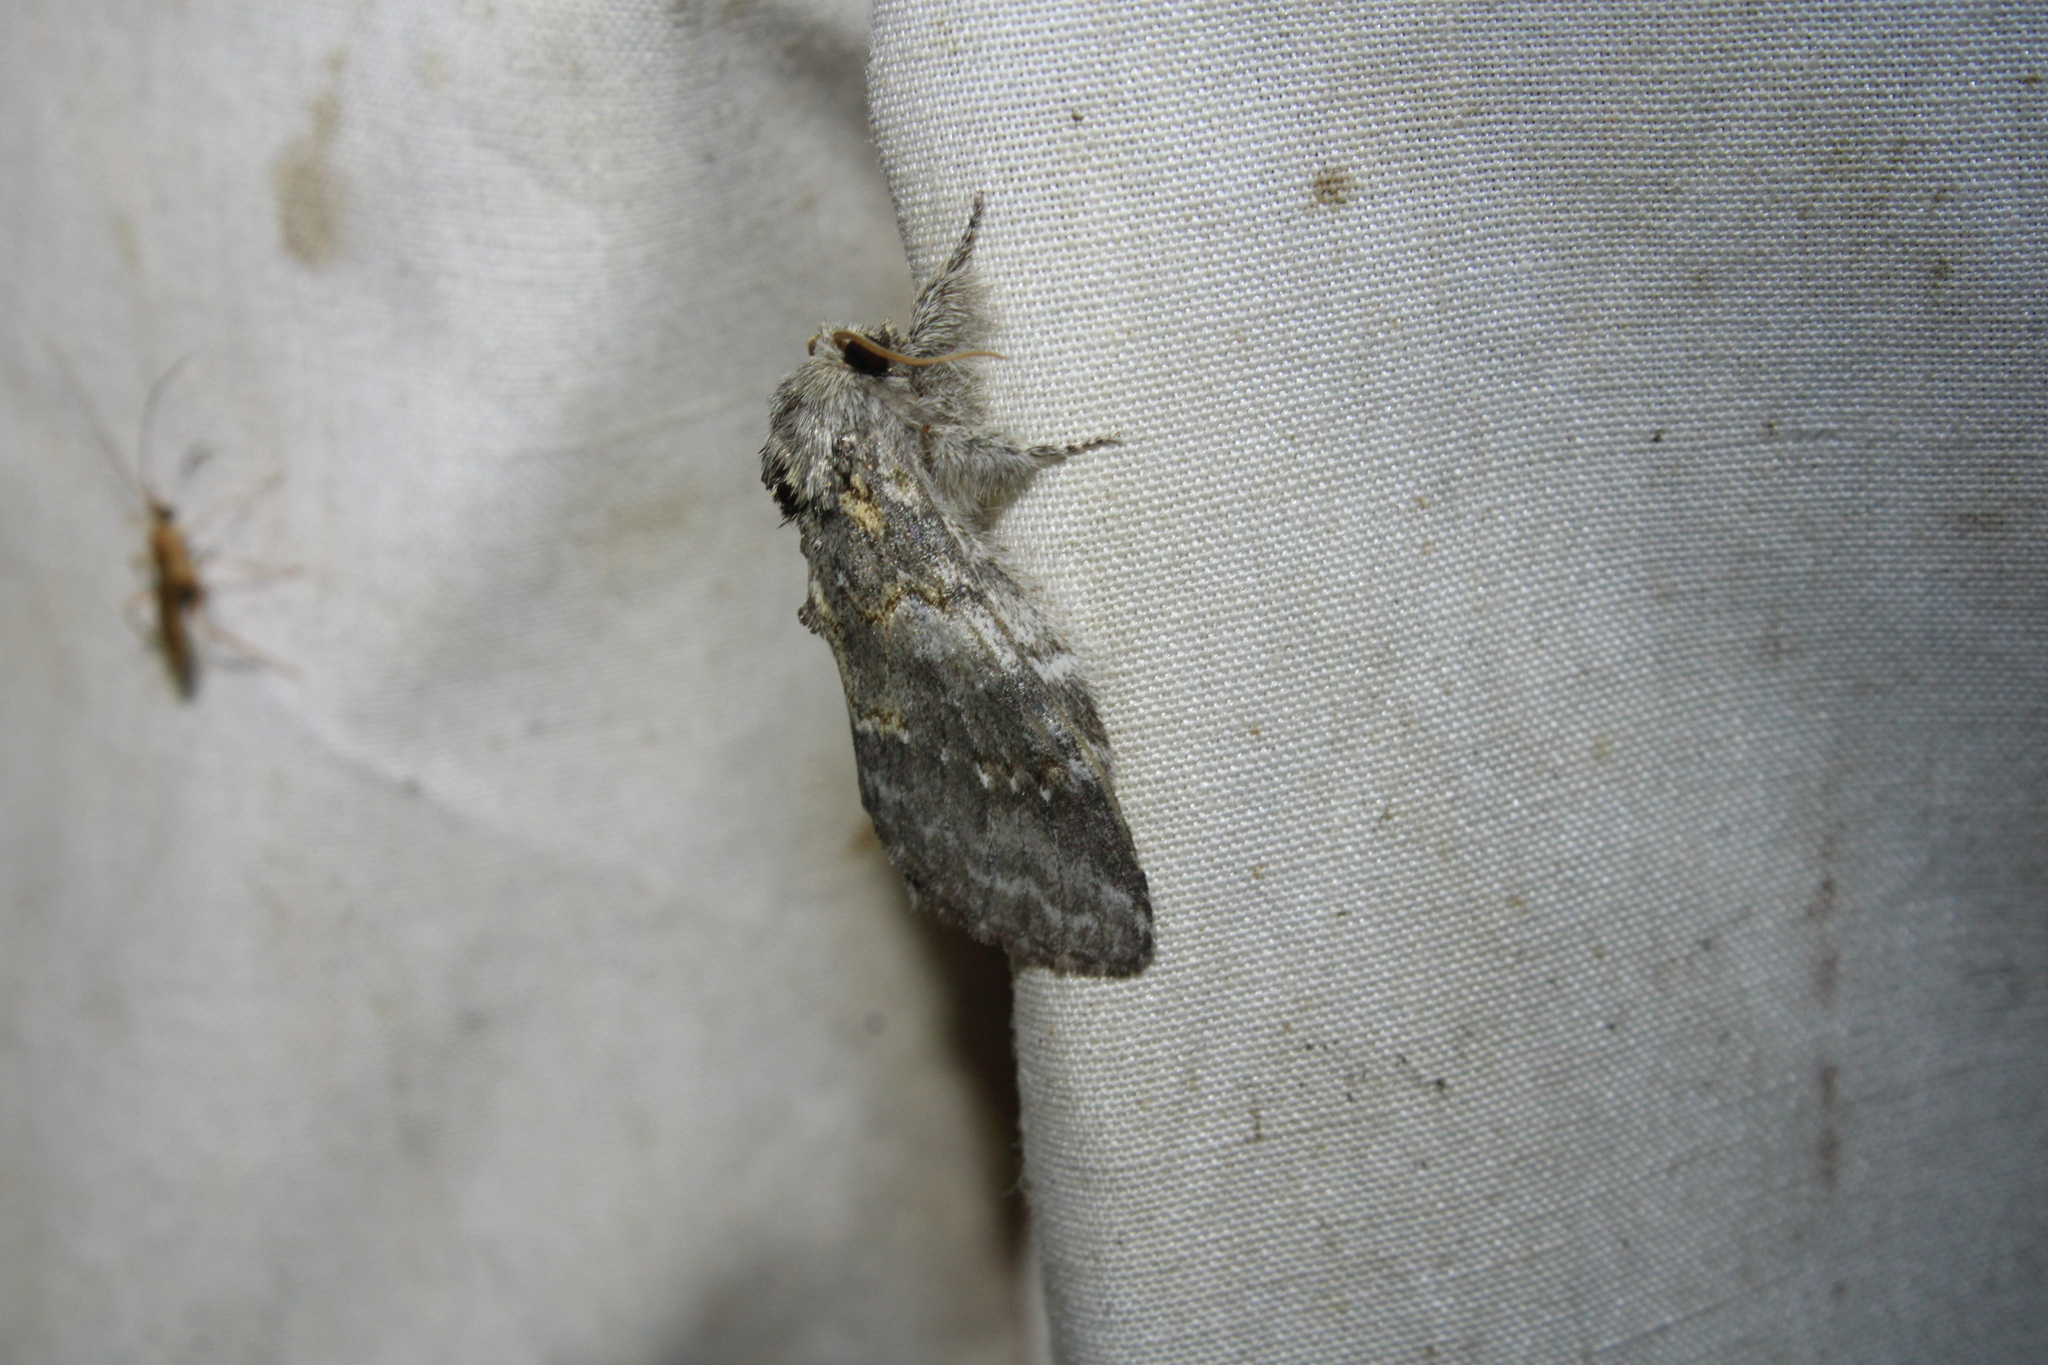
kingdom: Animalia
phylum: Arthropoda
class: Insecta
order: Lepidoptera
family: Notodontidae
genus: Peridea
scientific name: Peridea angulosa
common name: Angulose prominent
